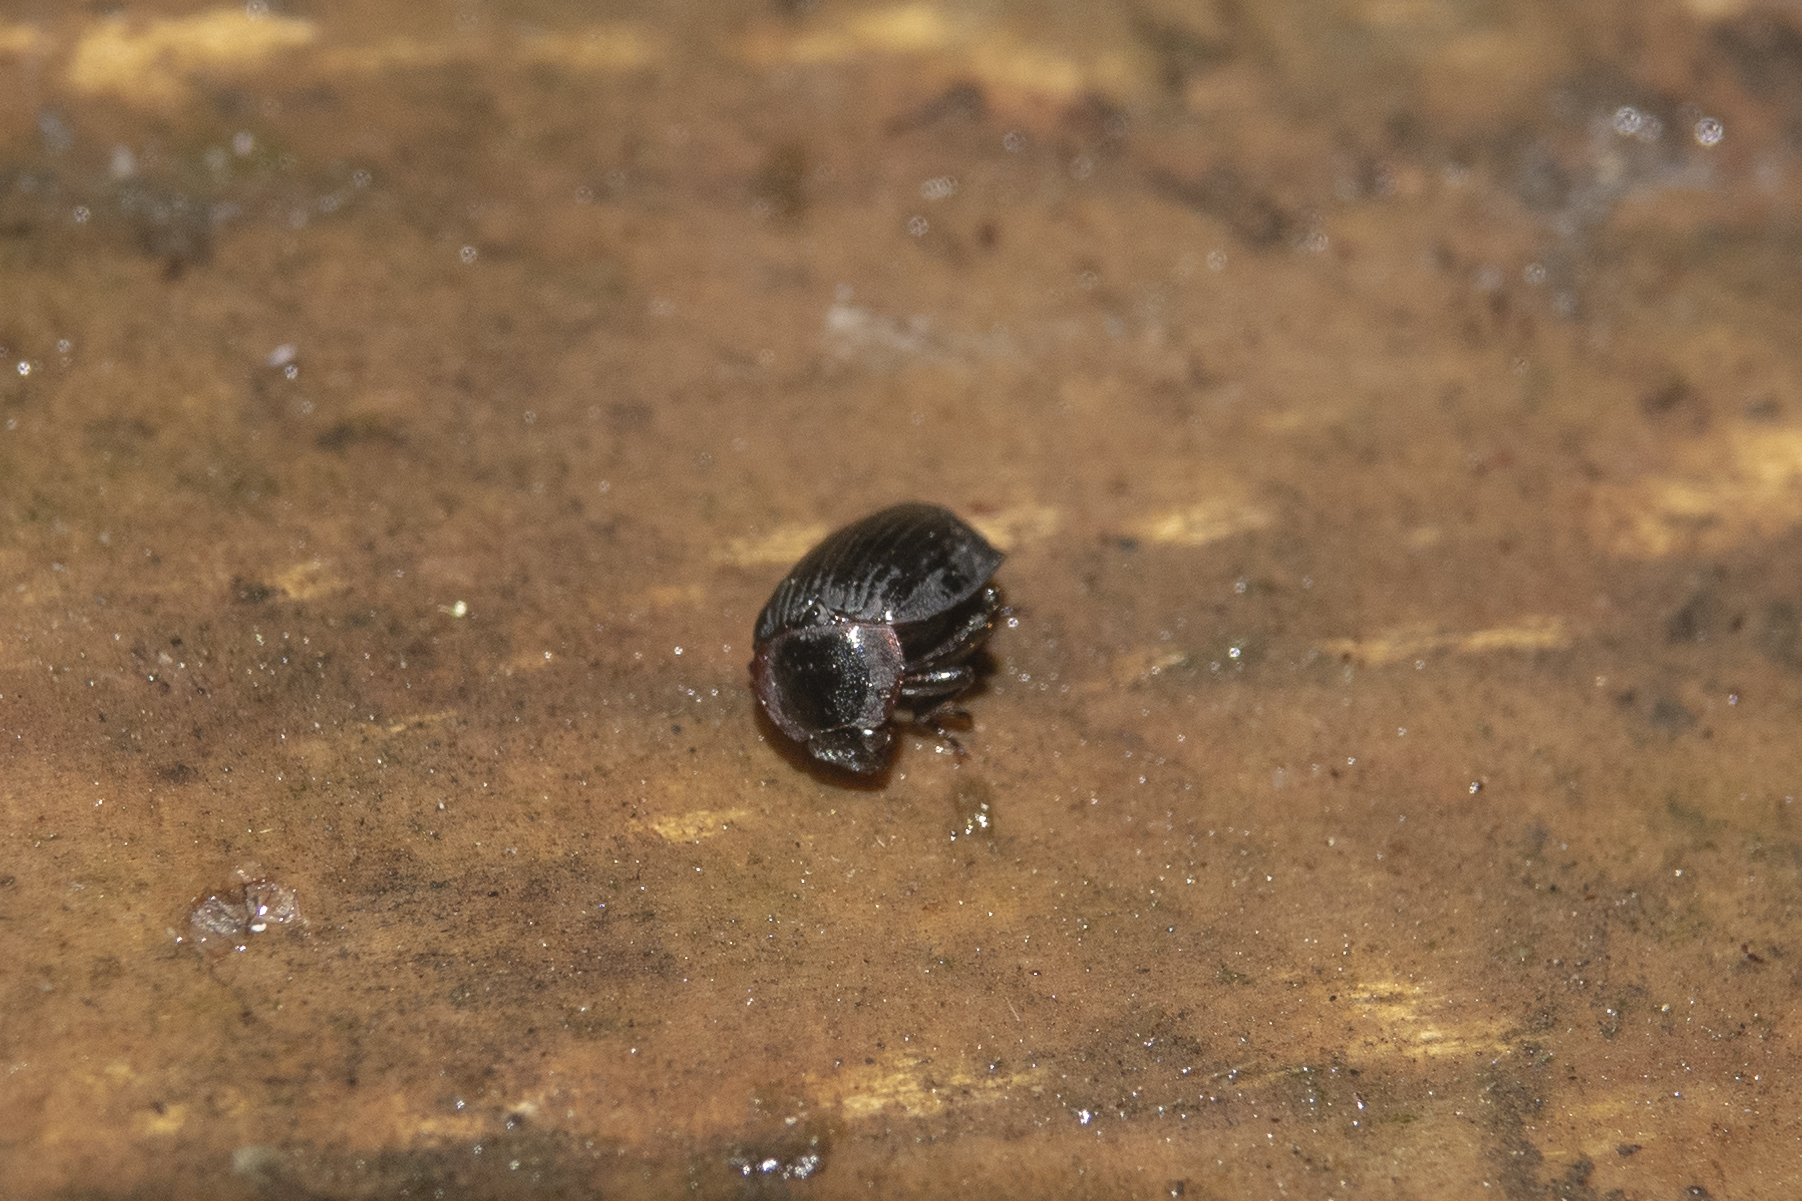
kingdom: Animalia
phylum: Arthropoda
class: Insecta
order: Coleoptera
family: Agyrtidae
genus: Zeanecrophilus
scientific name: Zeanecrophilus prolongatus
